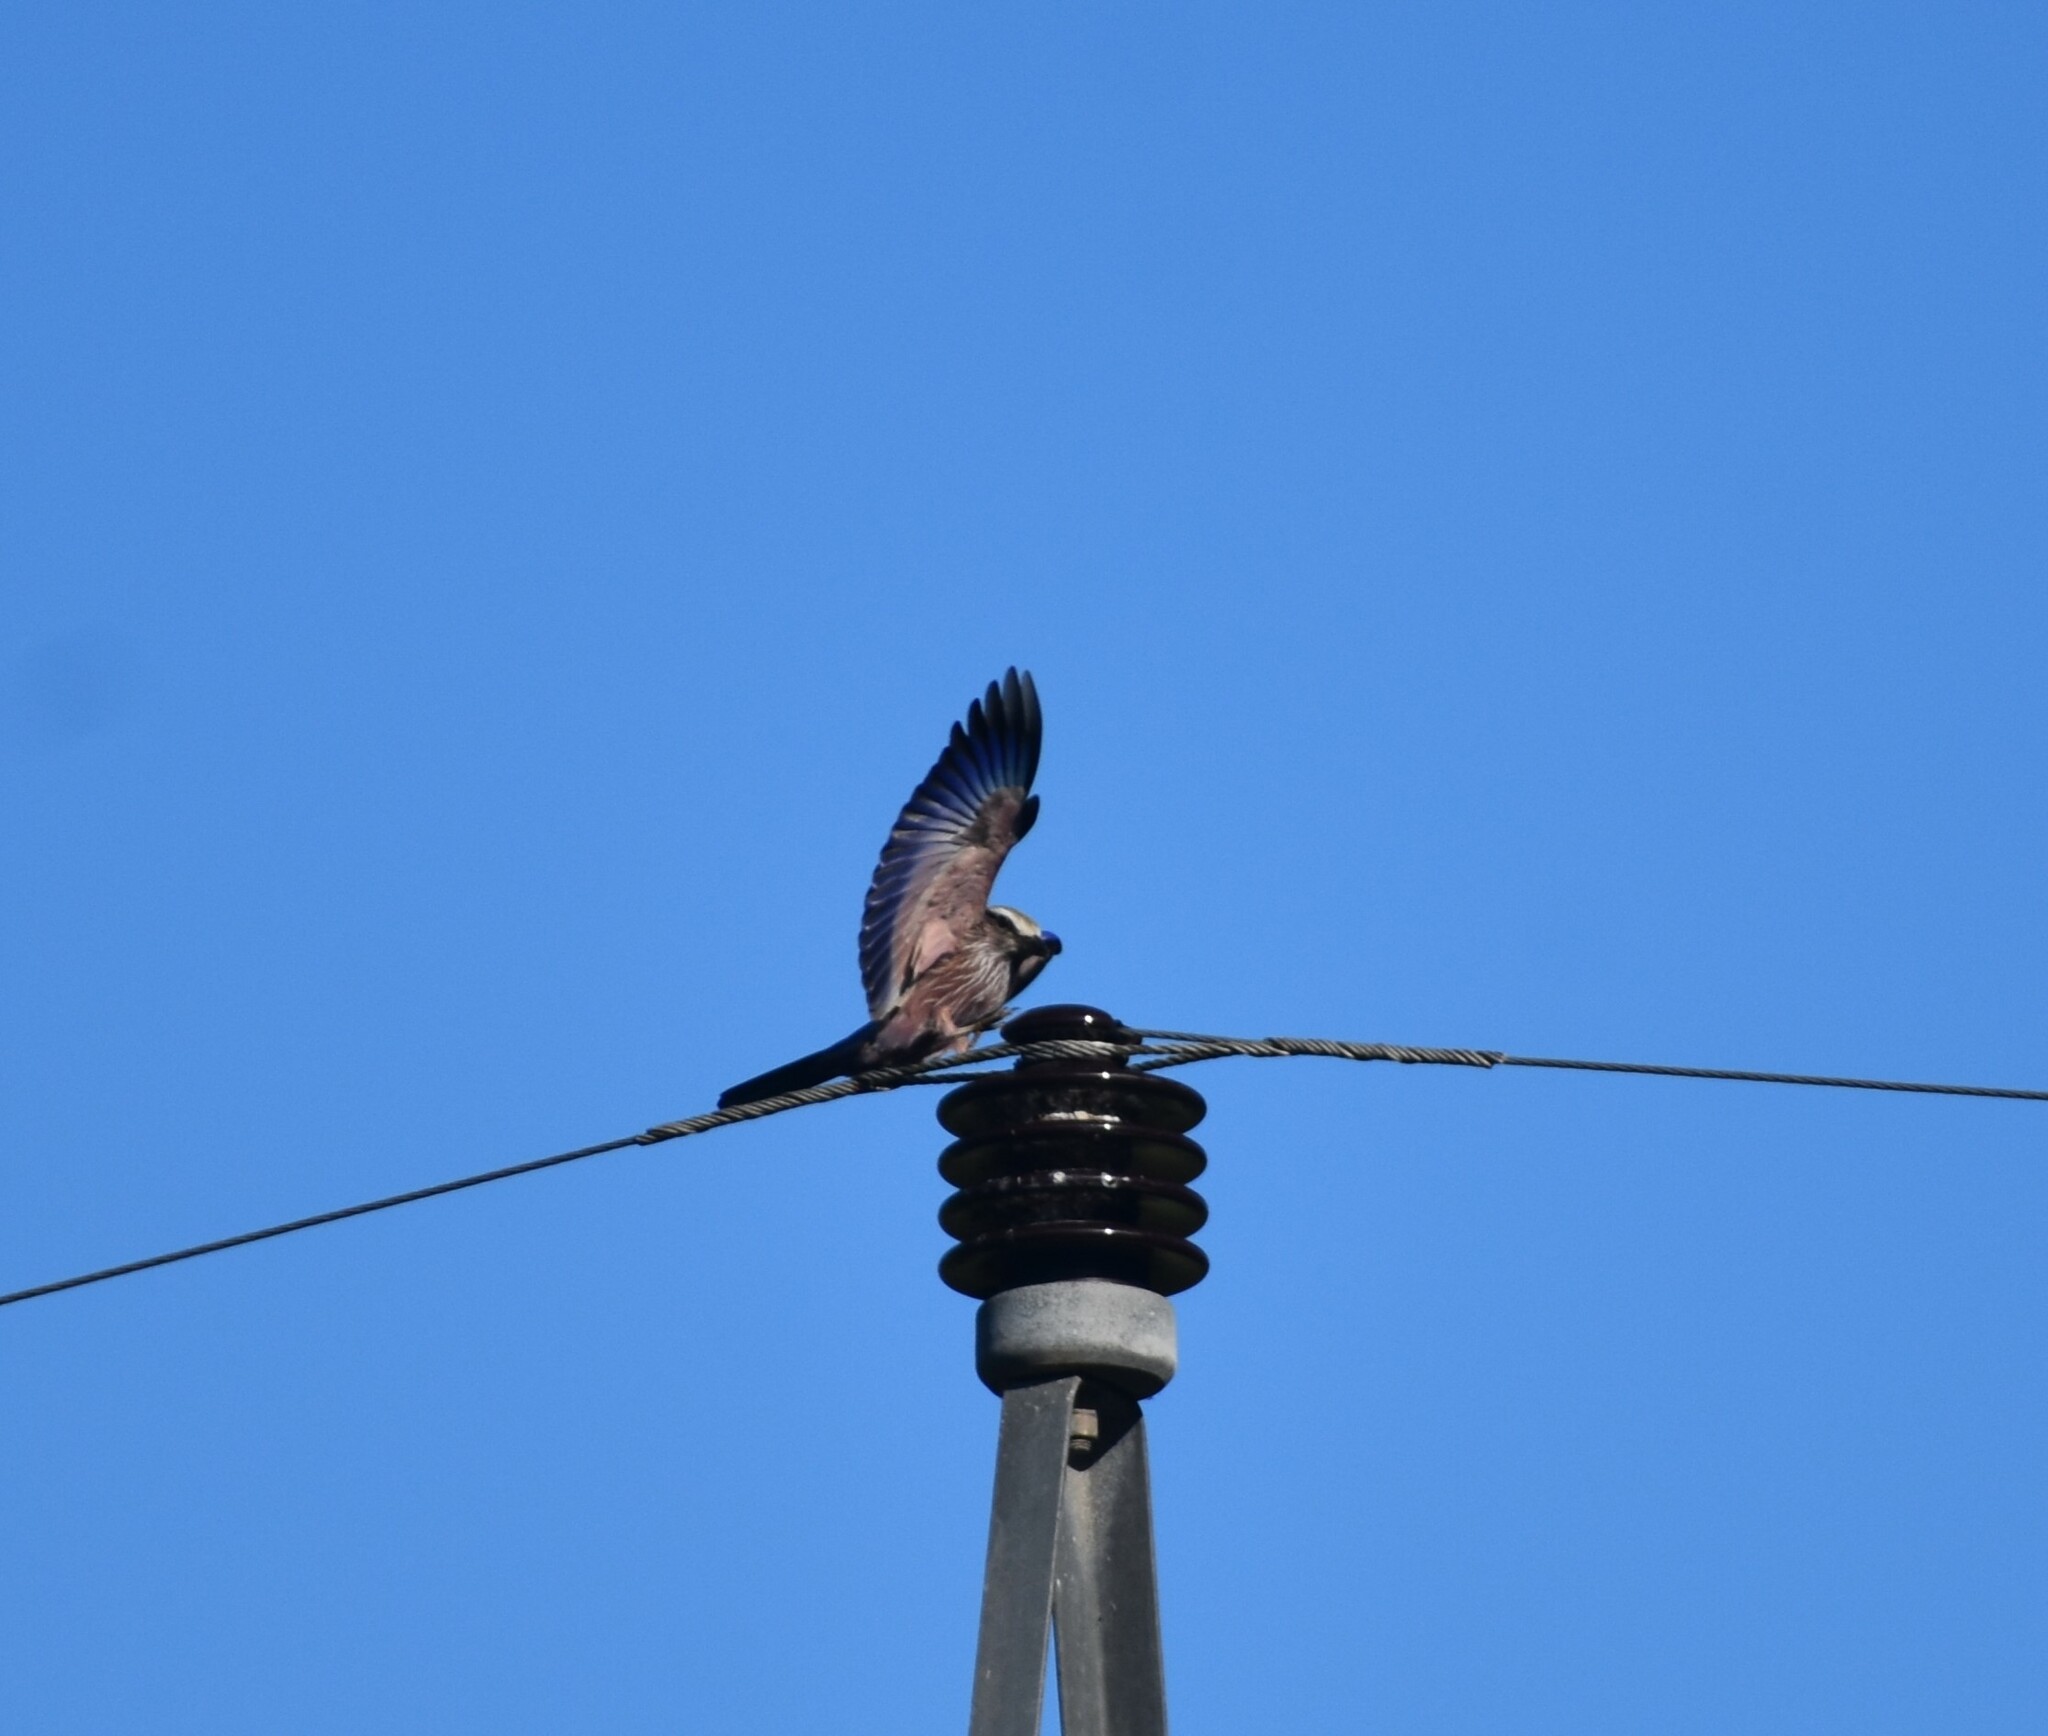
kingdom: Animalia
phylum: Chordata
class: Aves
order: Coraciiformes
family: Coraciidae
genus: Coracias
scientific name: Coracias naevius
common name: Purple roller
